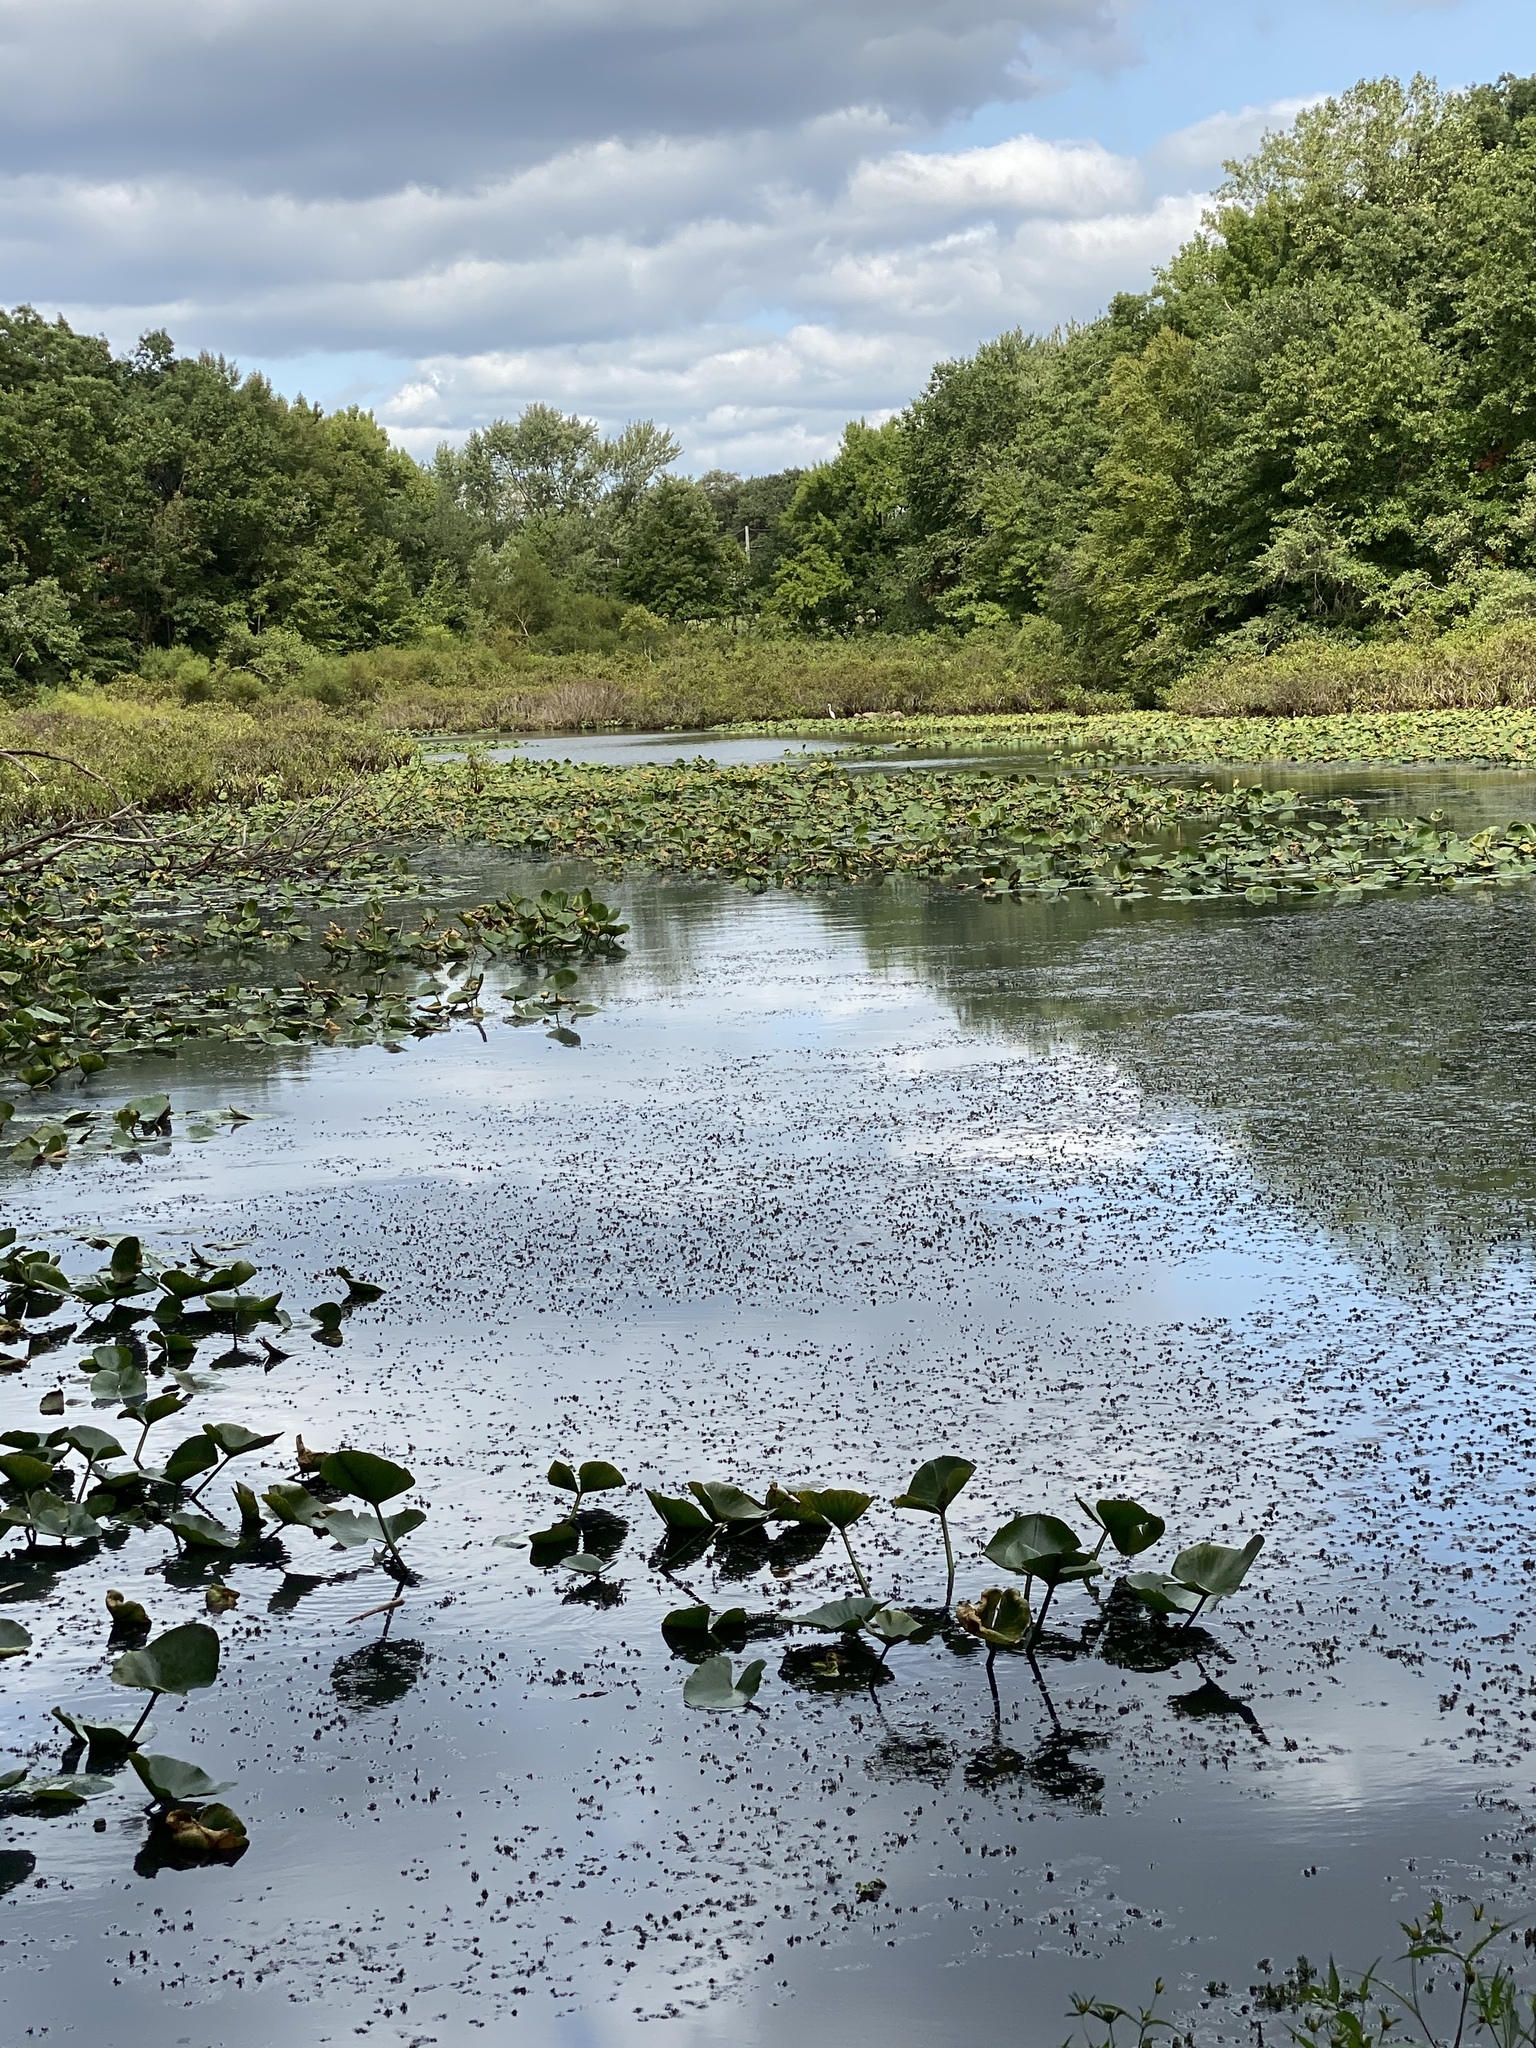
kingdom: Animalia
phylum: Chordata
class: Aves
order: Pelecaniformes
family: Ardeidae
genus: Ardea
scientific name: Ardea alba
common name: Great egret
